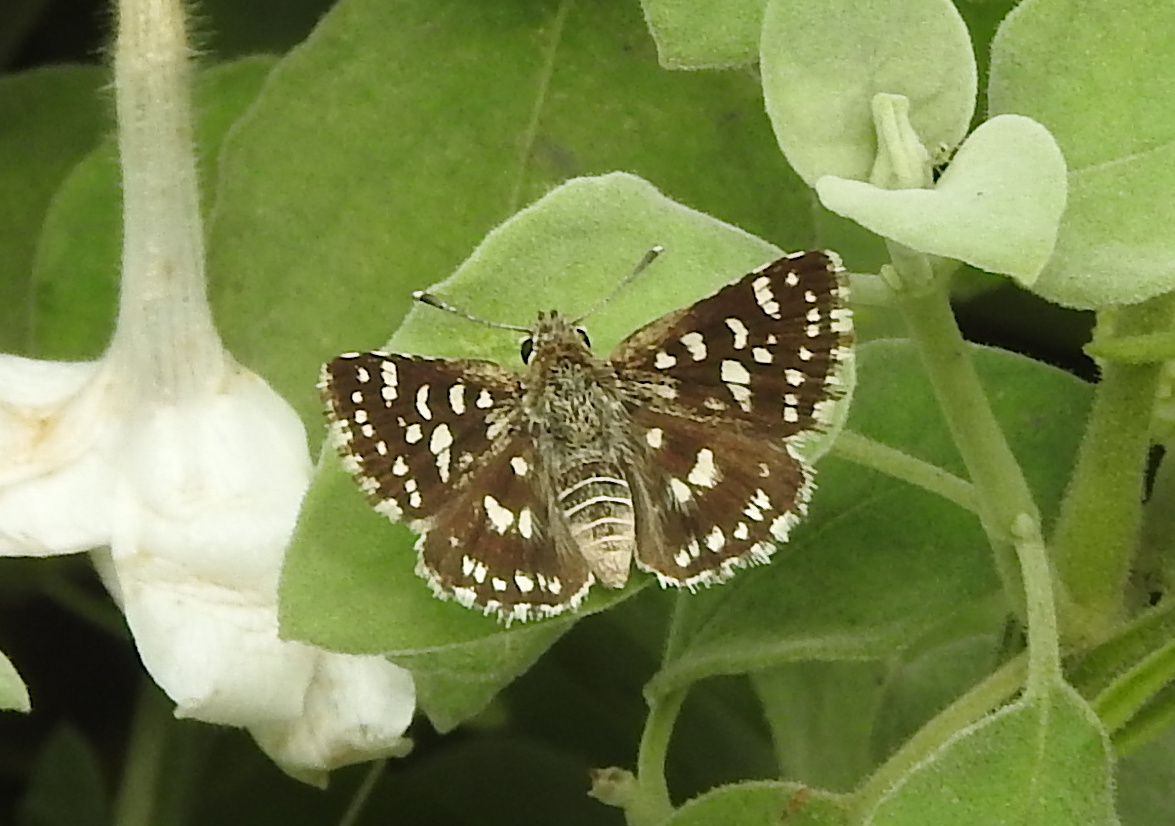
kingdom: Animalia
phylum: Arthropoda
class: Insecta
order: Lepidoptera
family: Hesperiidae
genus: Spialia
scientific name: Spialia galba
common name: Indian skipper
